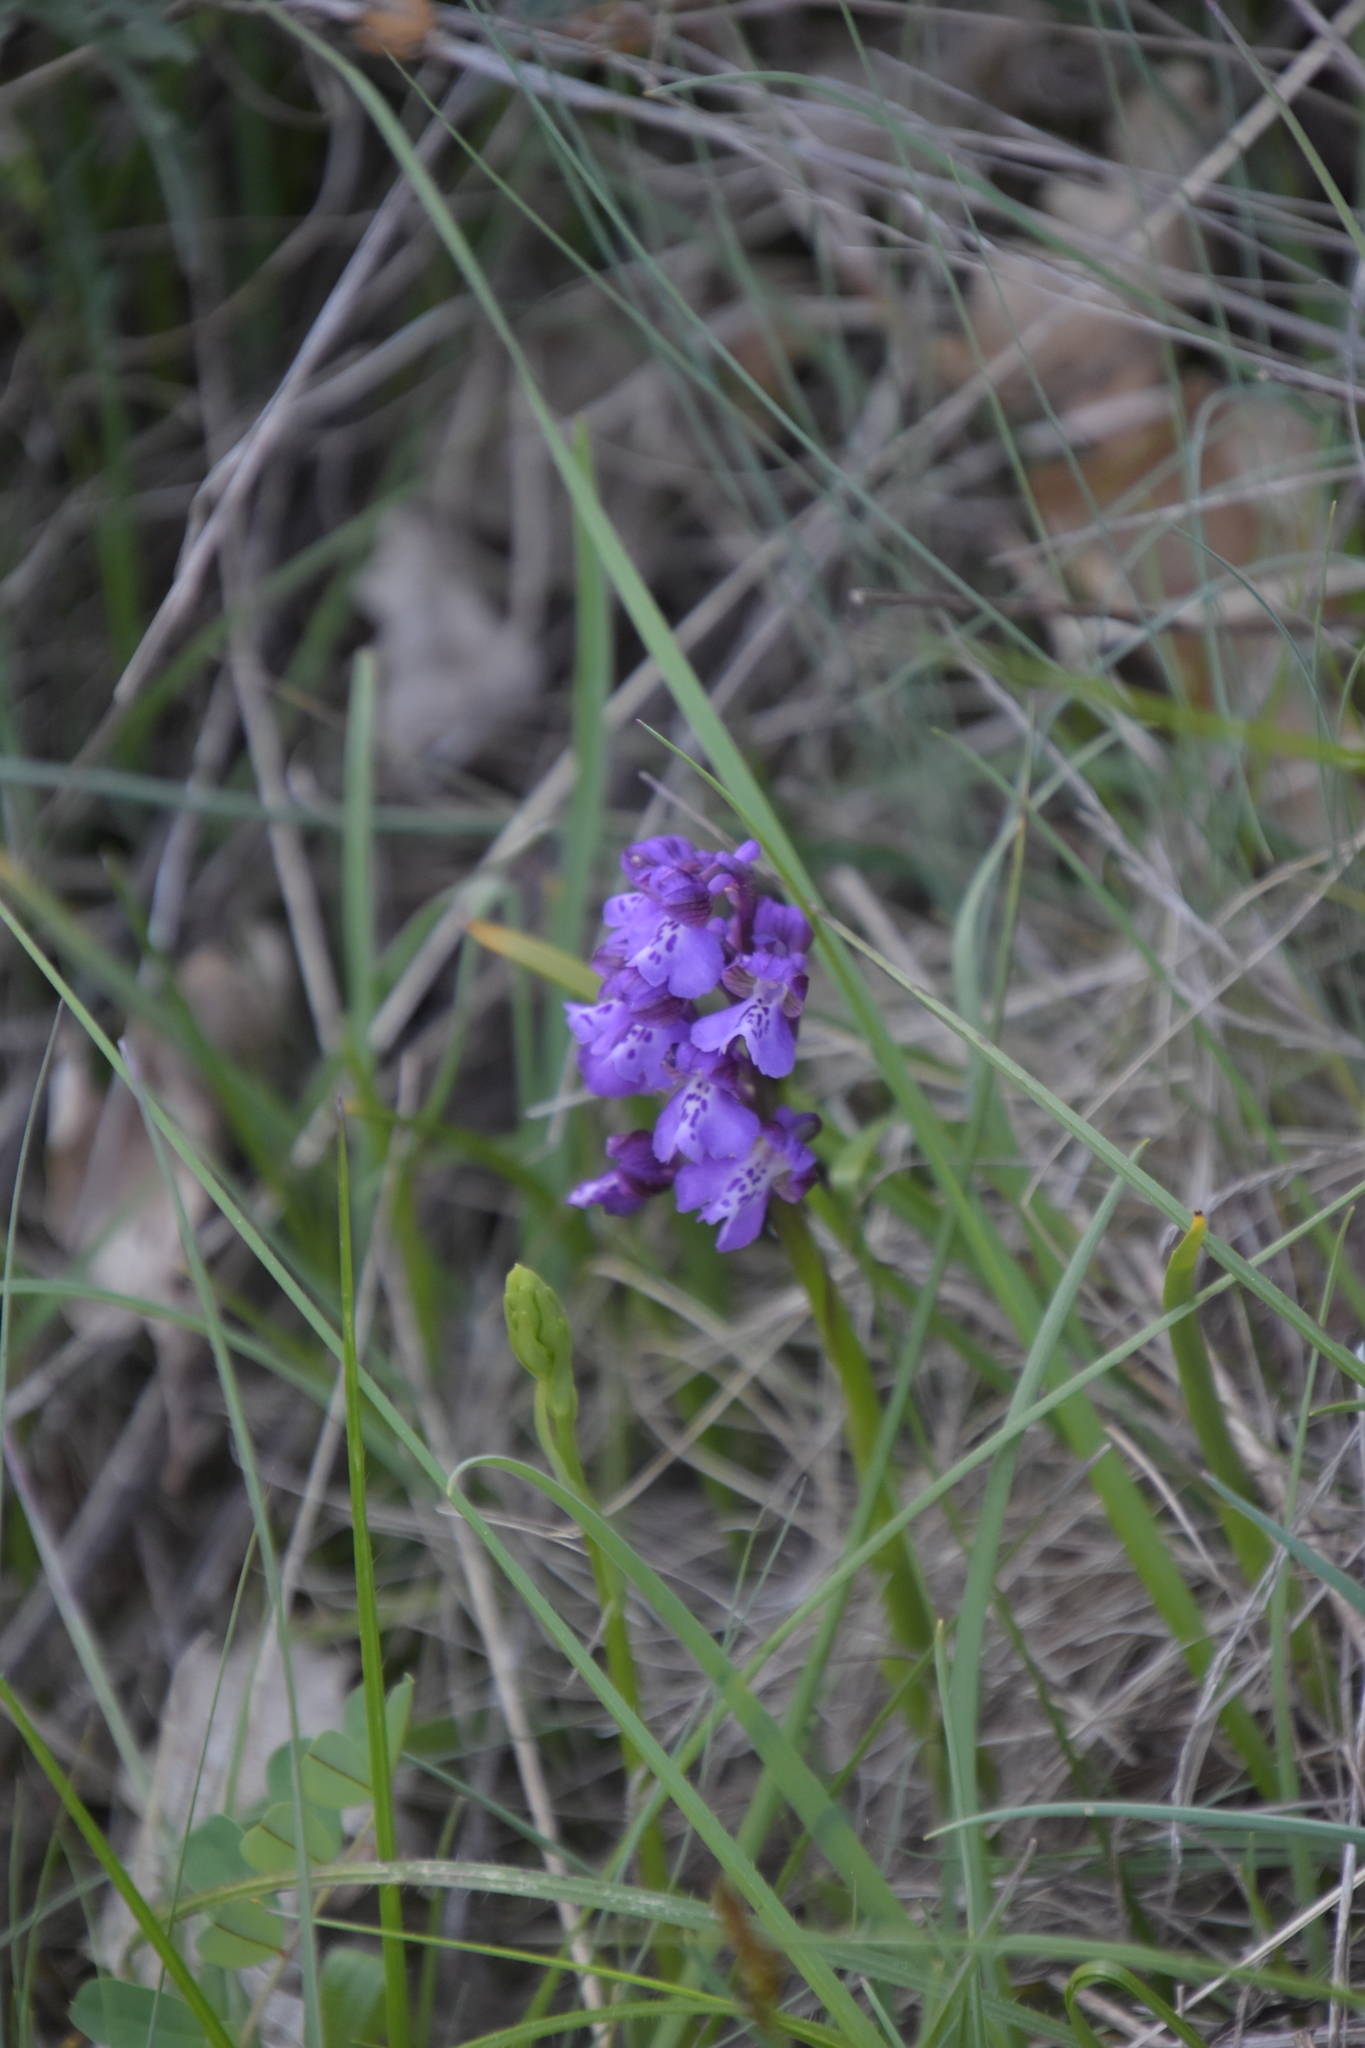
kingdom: Plantae
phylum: Tracheophyta
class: Liliopsida
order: Asparagales
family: Orchidaceae
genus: Anacamptis
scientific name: Anacamptis morio
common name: Green-winged orchid
